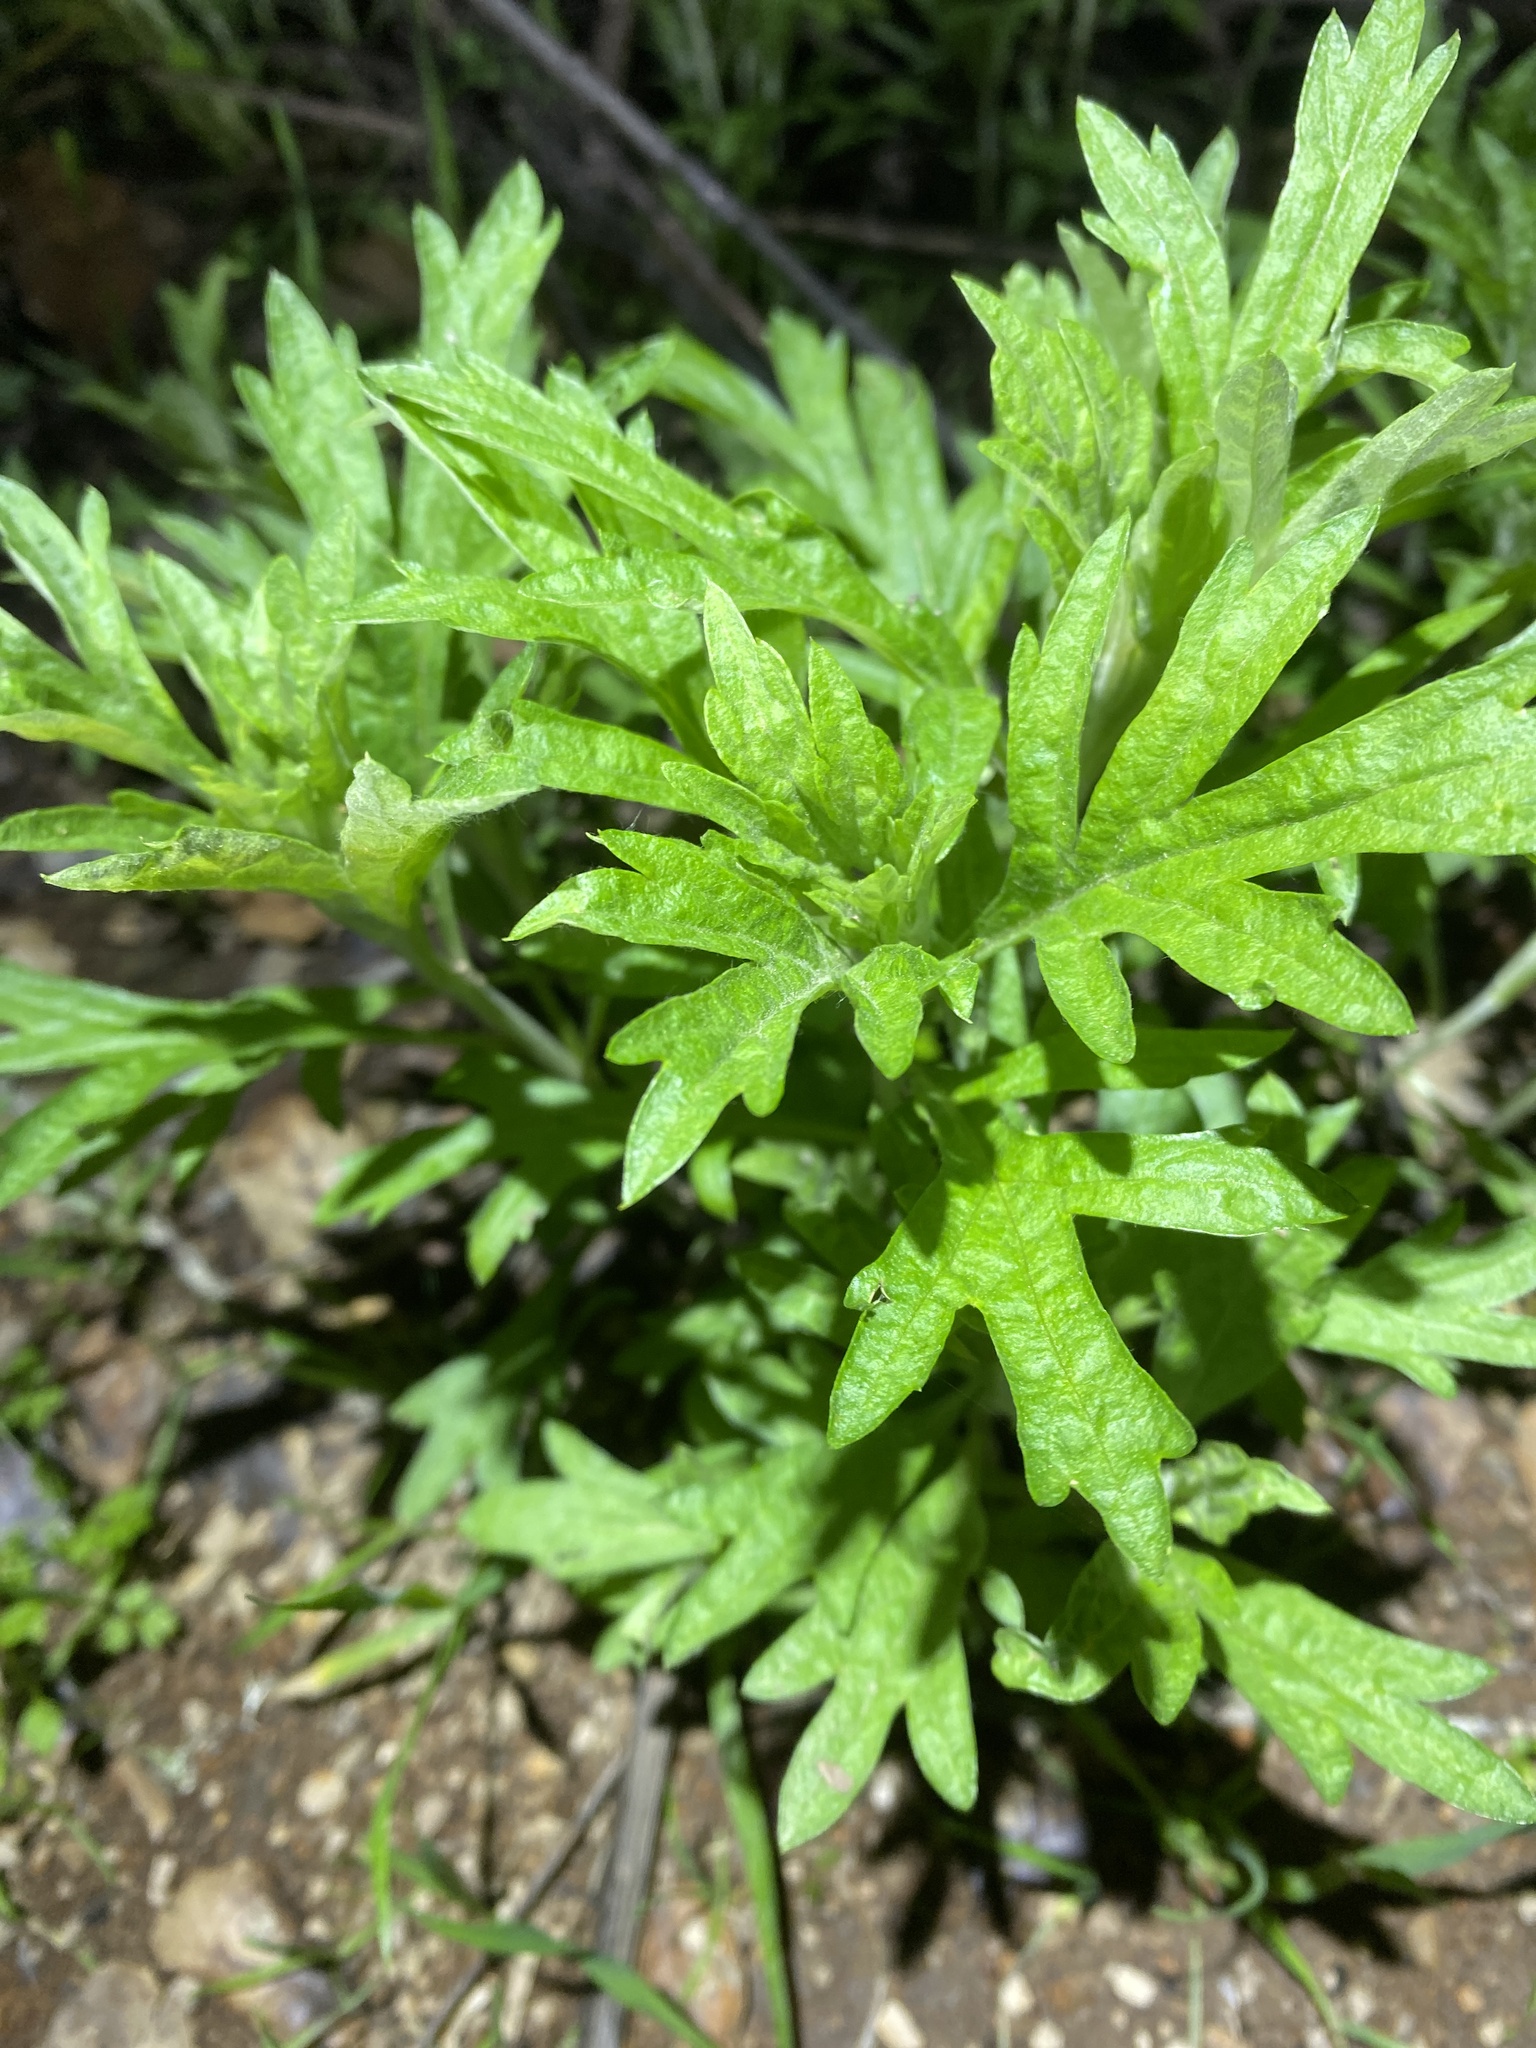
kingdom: Plantae
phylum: Tracheophyta
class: Magnoliopsida
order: Asterales
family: Asteraceae
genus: Artemisia
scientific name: Artemisia douglasiana
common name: Northwest mugwort
